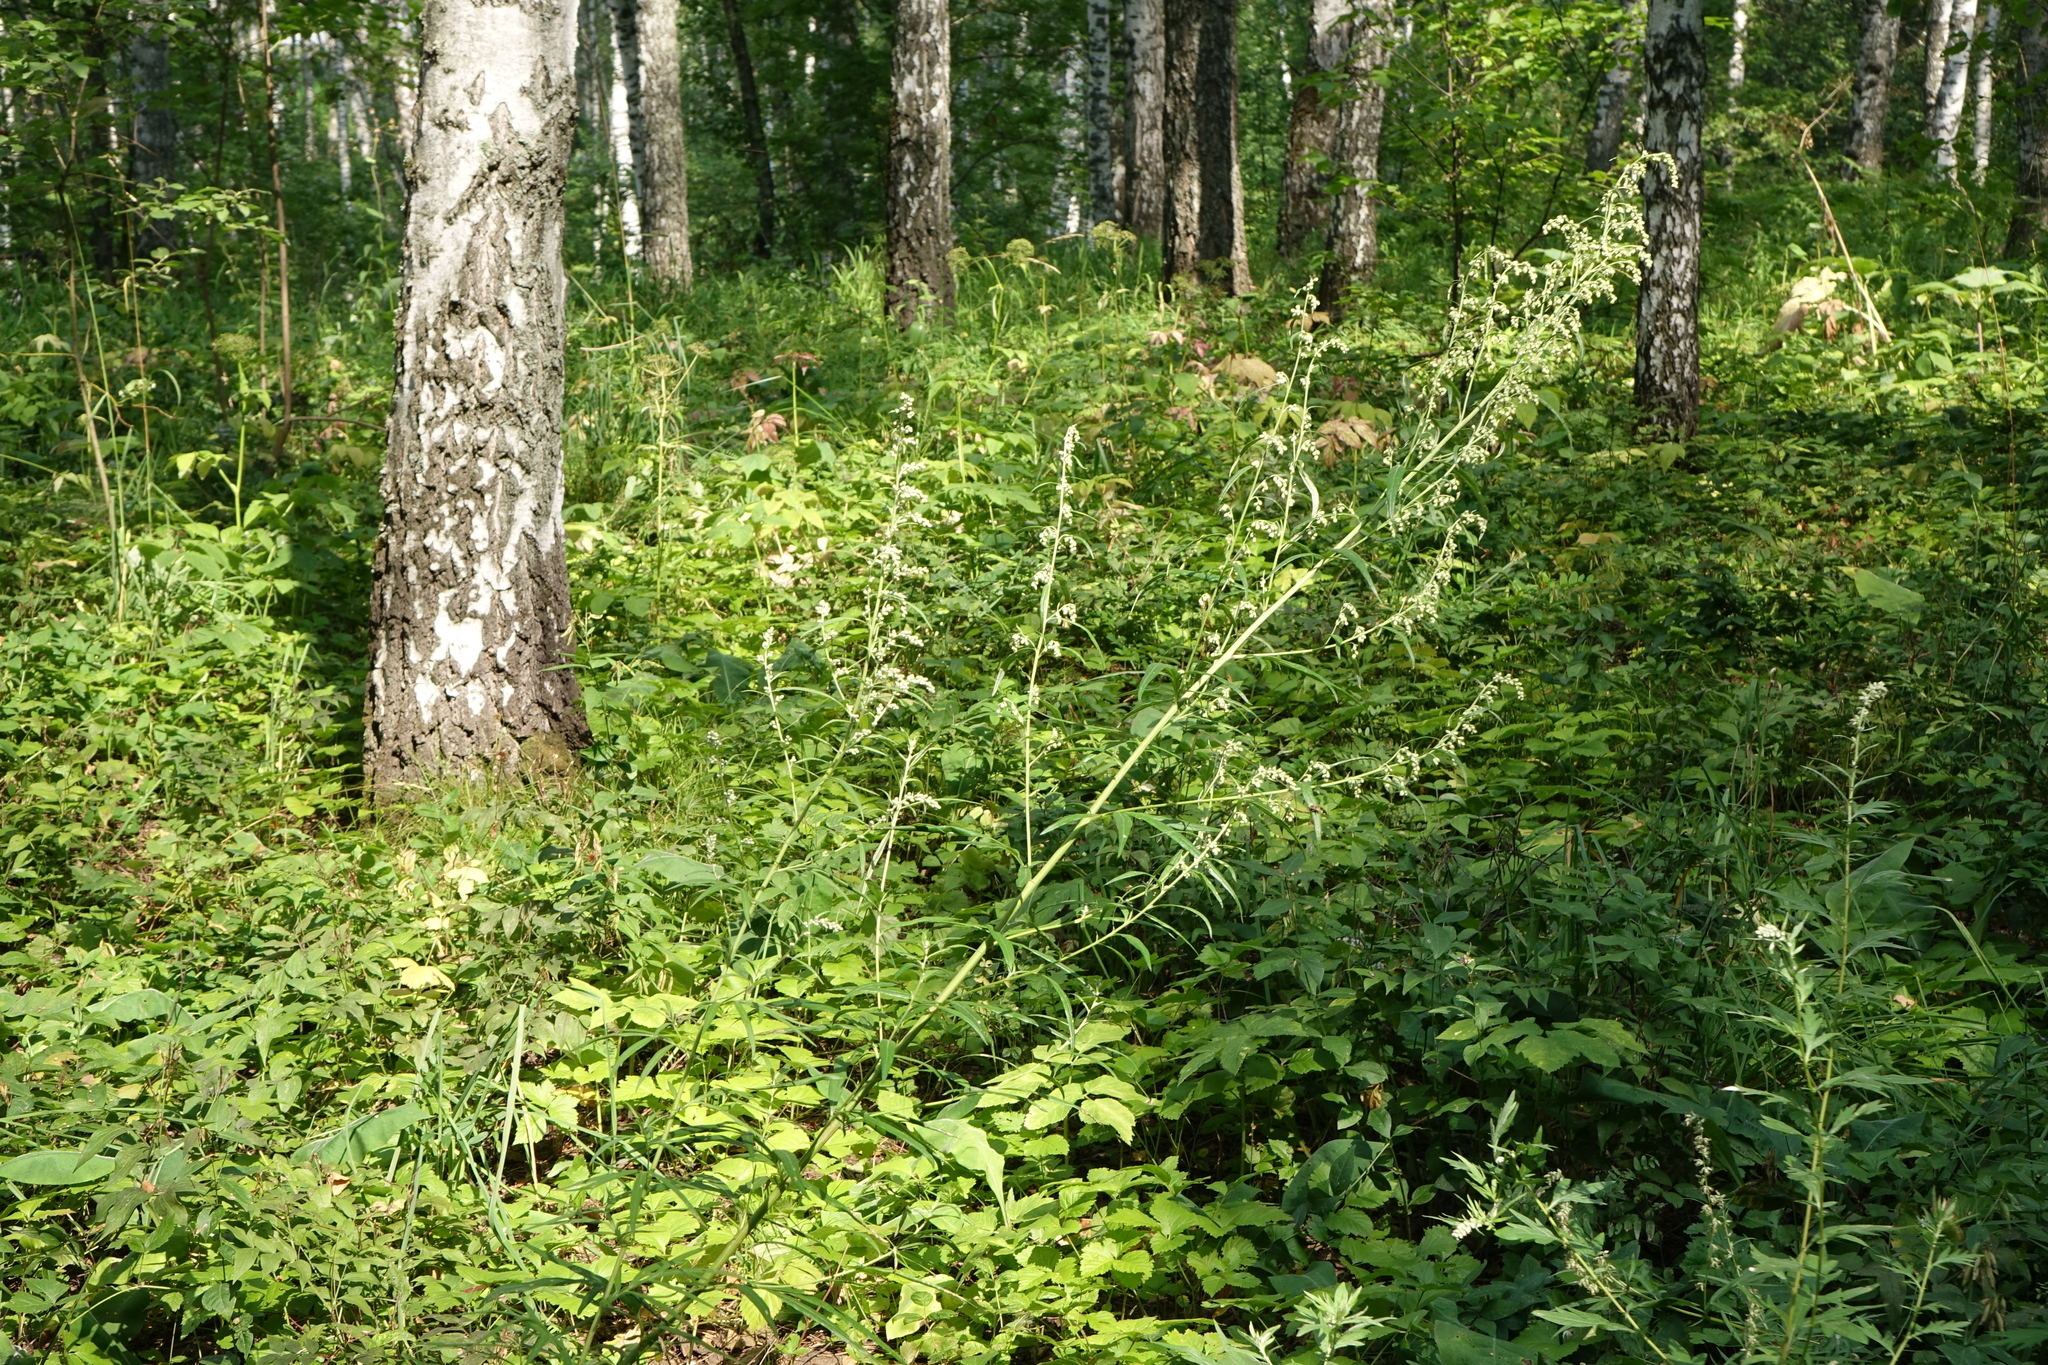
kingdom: Plantae
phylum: Tracheophyta
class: Magnoliopsida
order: Asterales
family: Asteraceae
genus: Artemisia
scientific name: Artemisia vulgaris
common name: Mugwort
